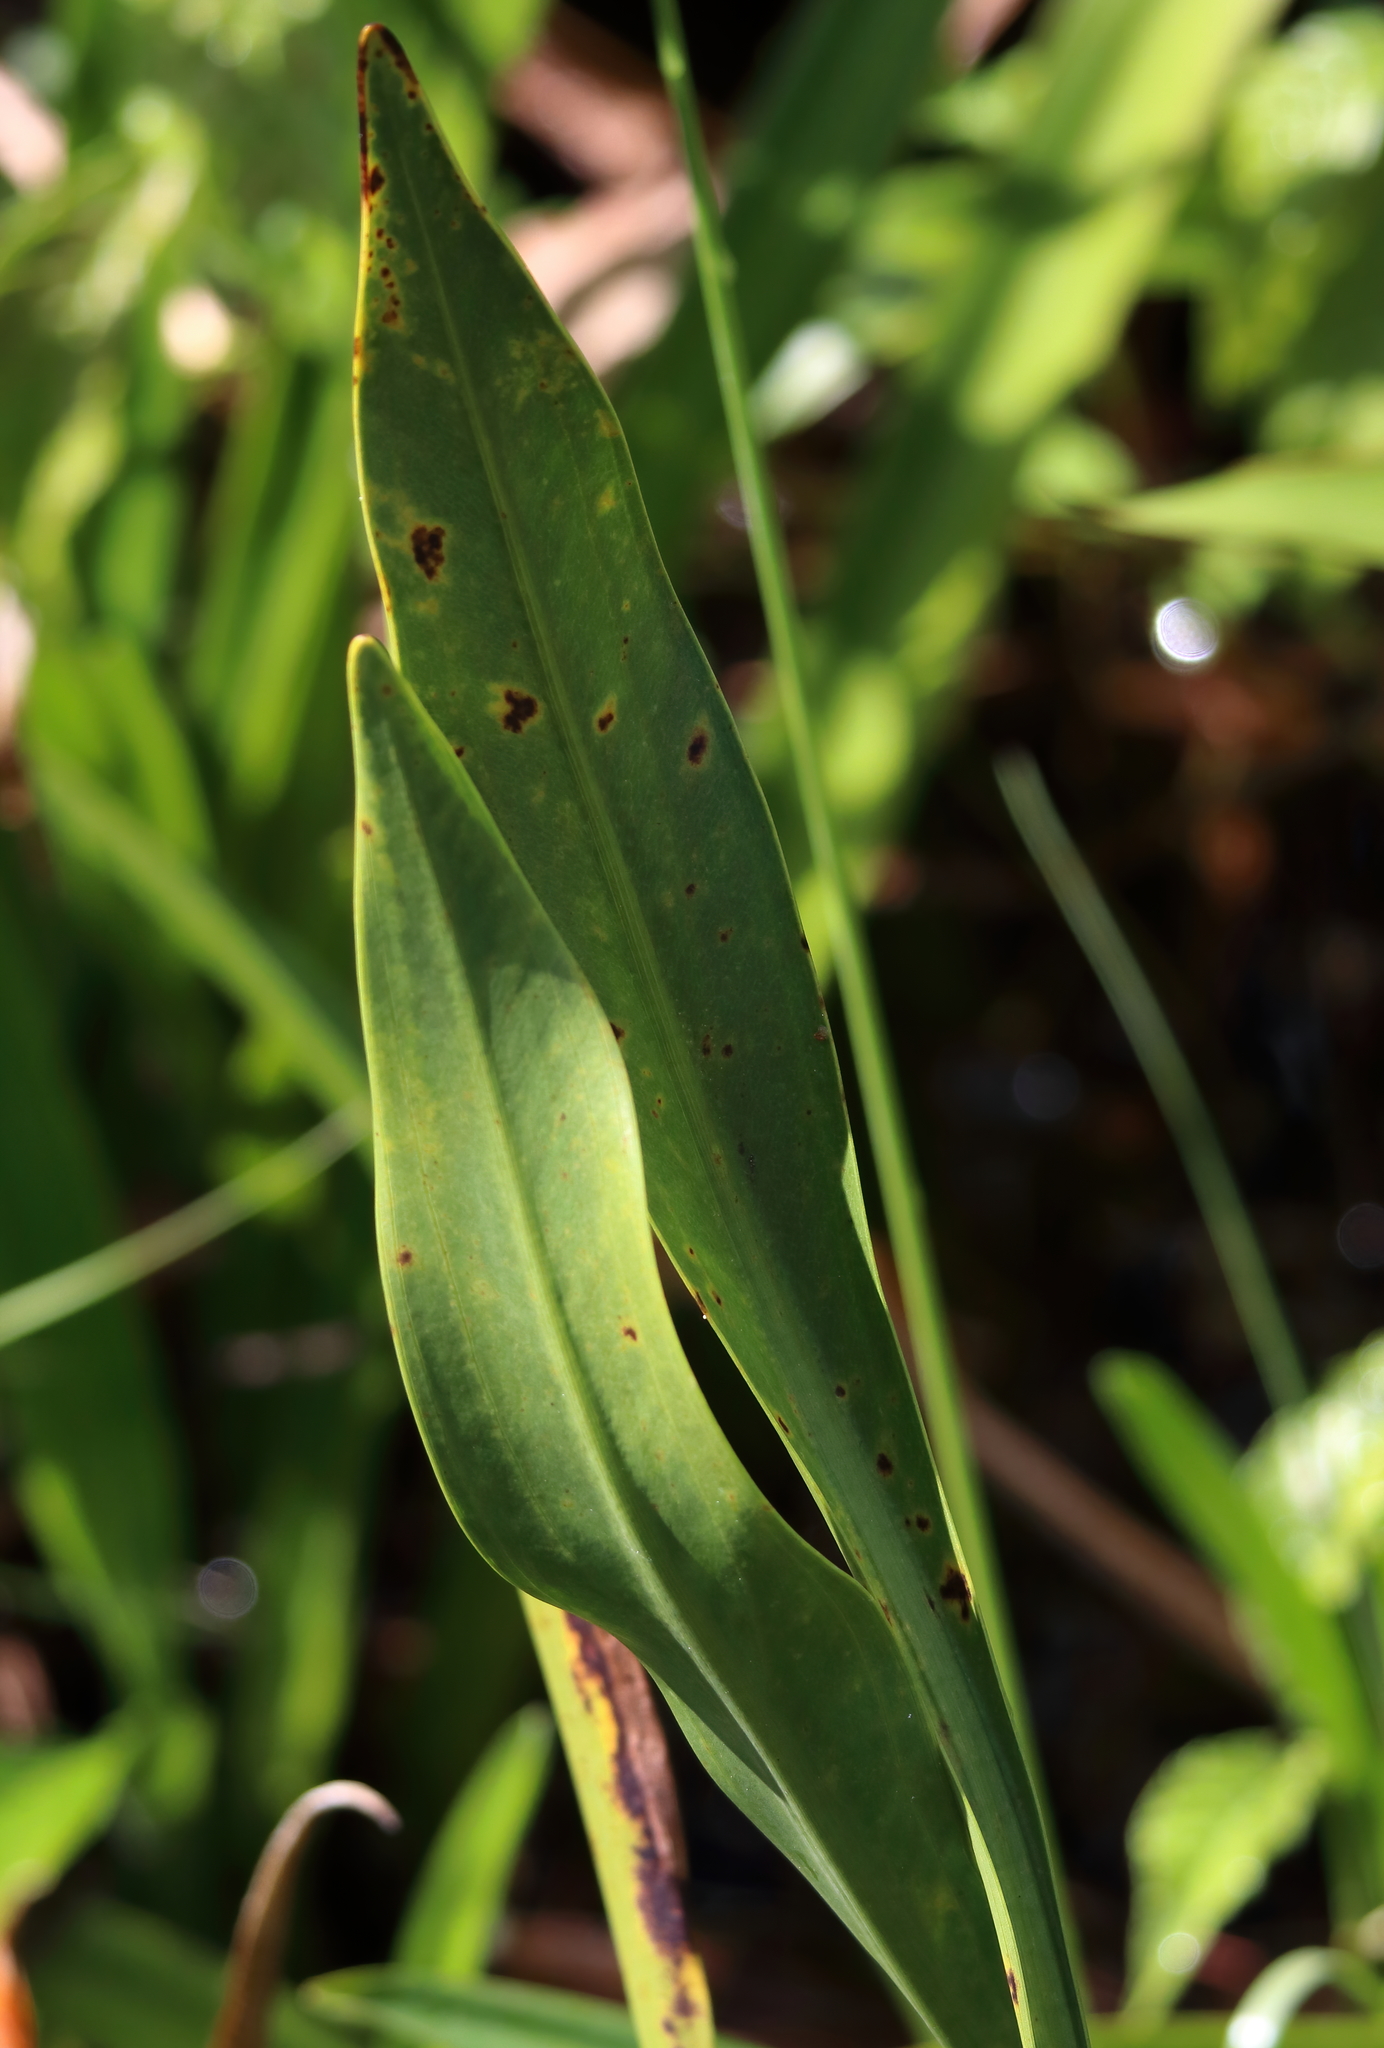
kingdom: Plantae
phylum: Tracheophyta
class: Liliopsida
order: Alismatales
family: Alismataceae
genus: Sagittaria
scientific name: Sagittaria lancifolia
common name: Lance-leaf arrowhead
